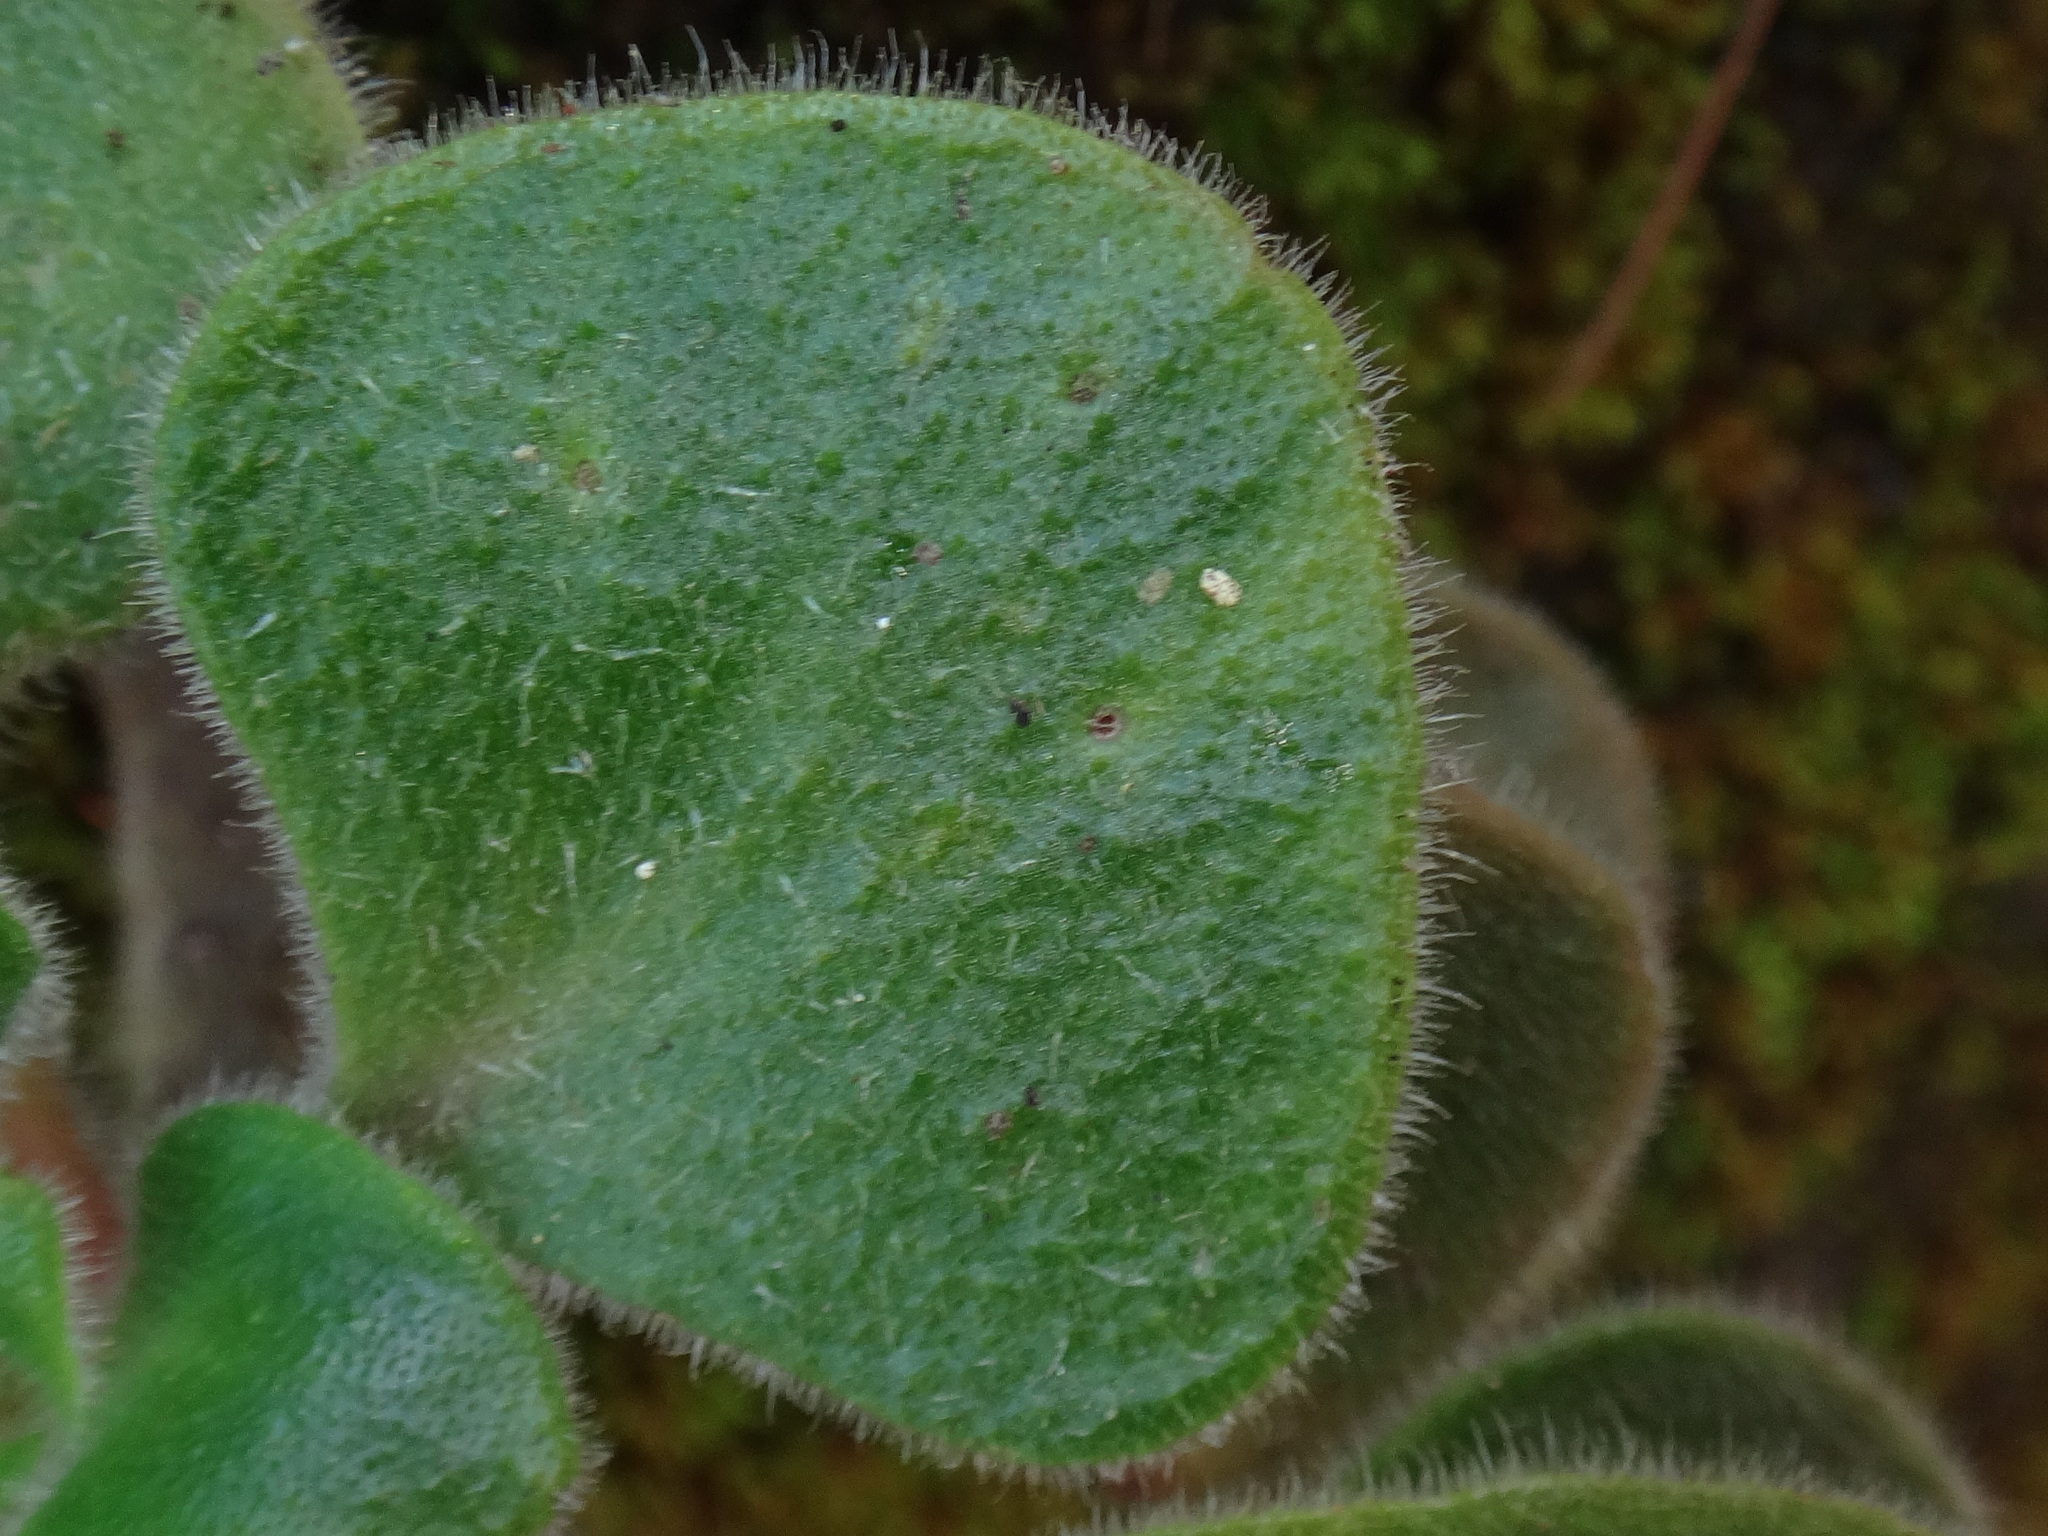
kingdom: Plantae
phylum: Tracheophyta
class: Magnoliopsida
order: Saxifragales
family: Crassulaceae
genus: Aichryson
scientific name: Aichryson laxum
